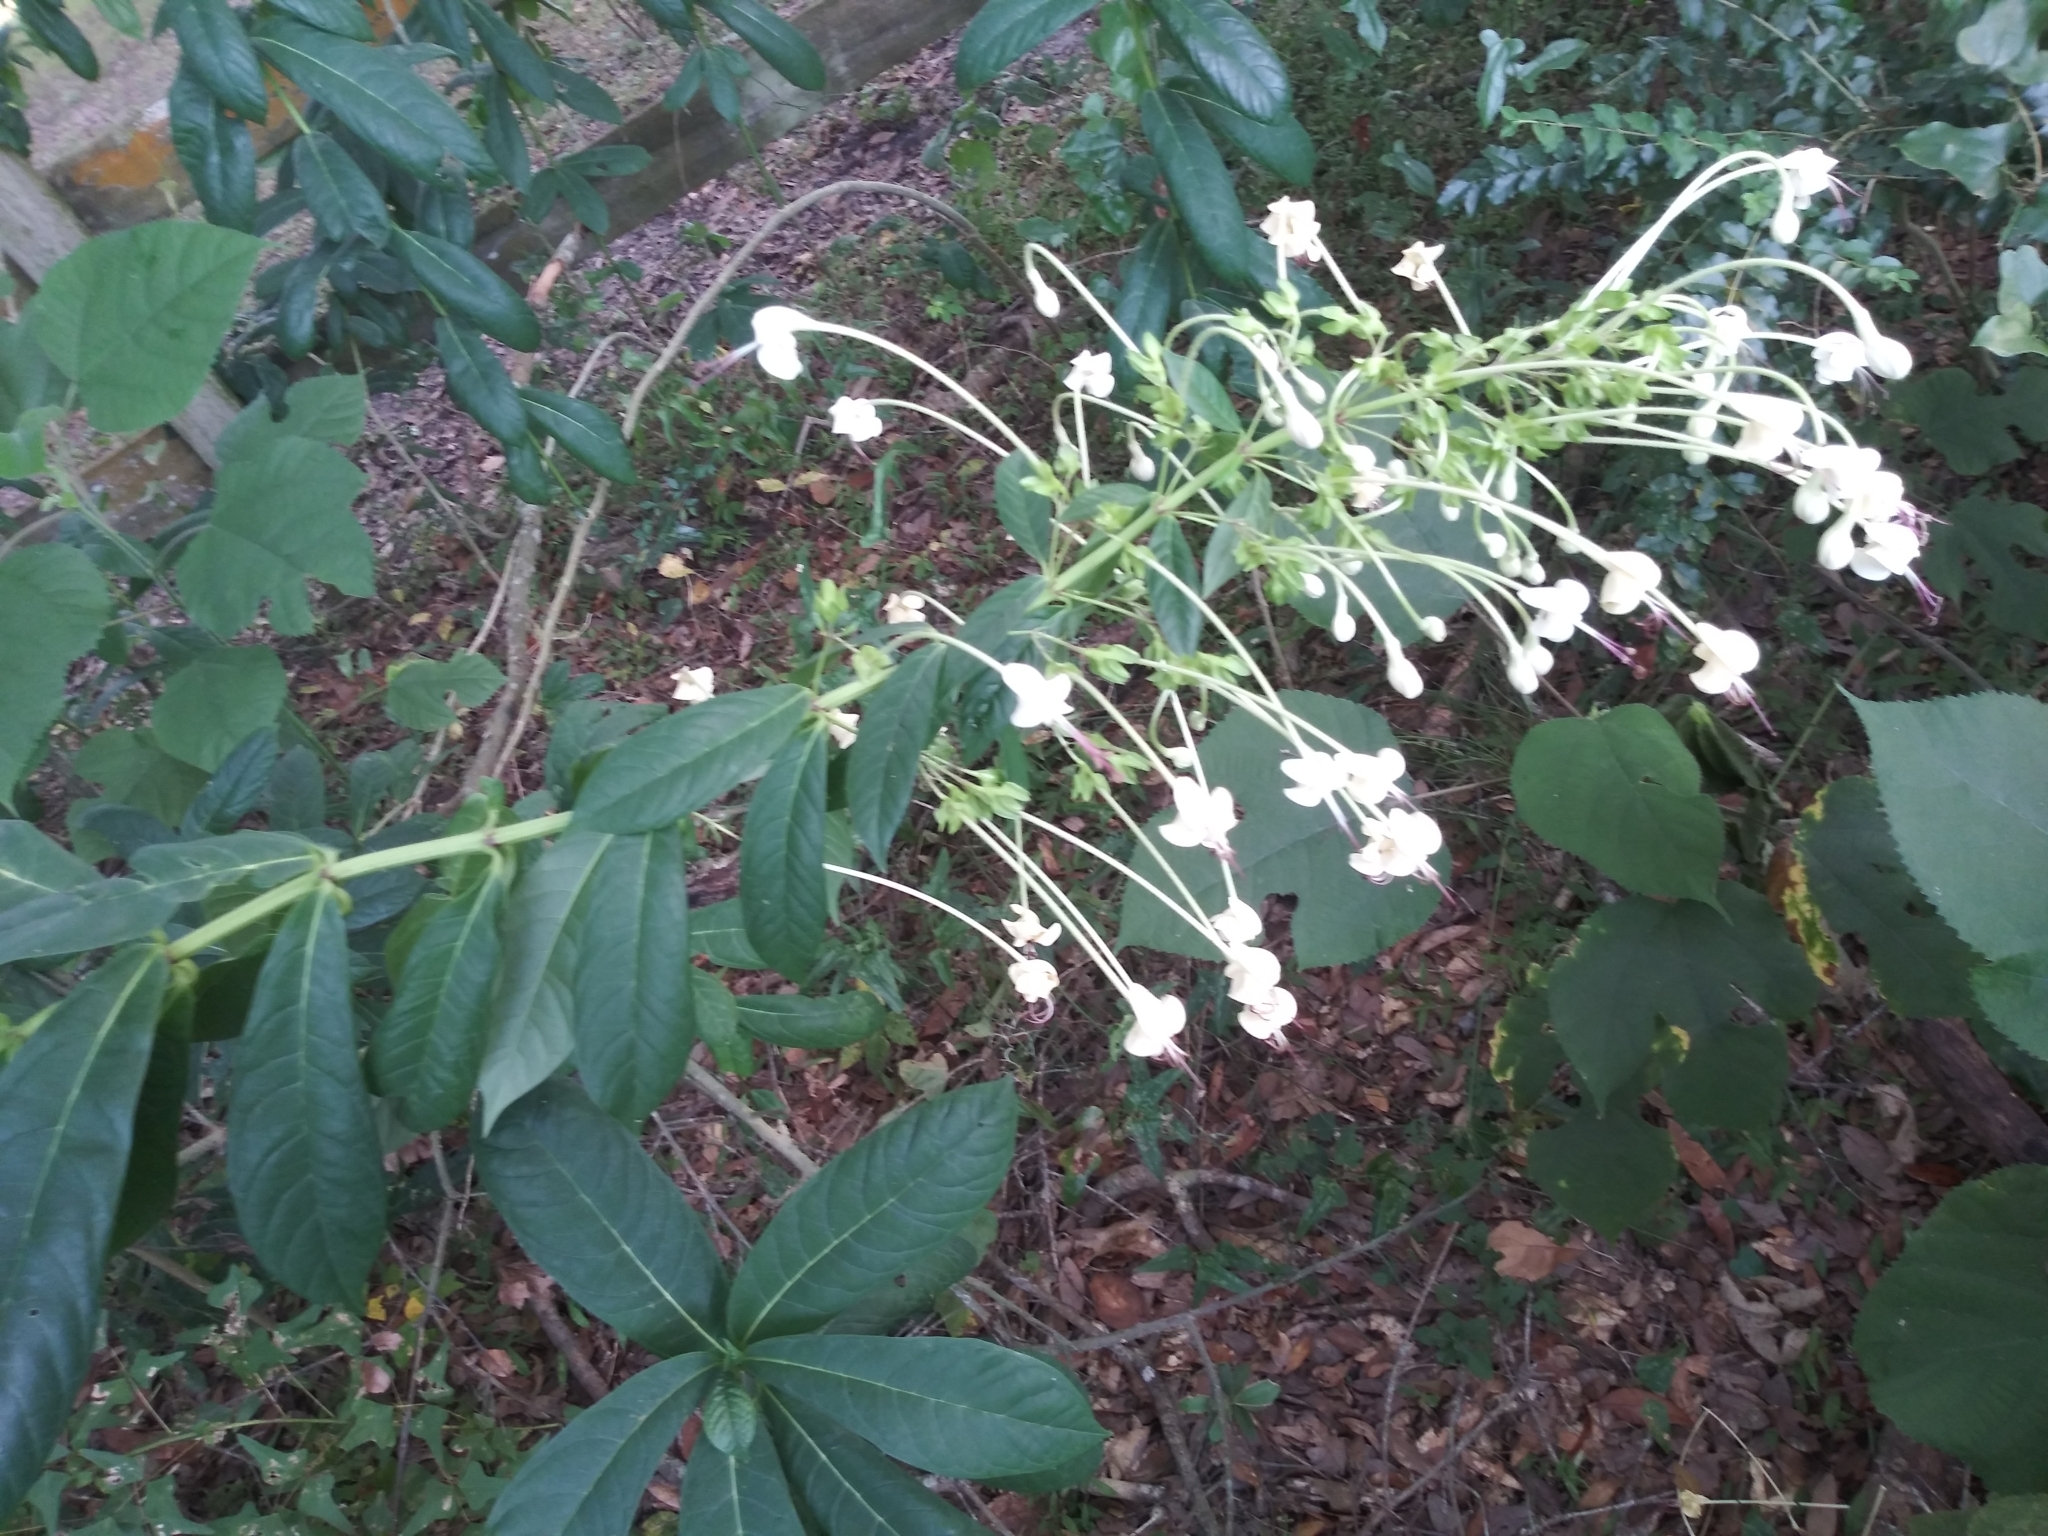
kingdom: Plantae
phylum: Tracheophyta
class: Magnoliopsida
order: Lamiales
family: Lamiaceae
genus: Clerodendrum
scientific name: Clerodendrum indicum
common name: Turk's turbin
